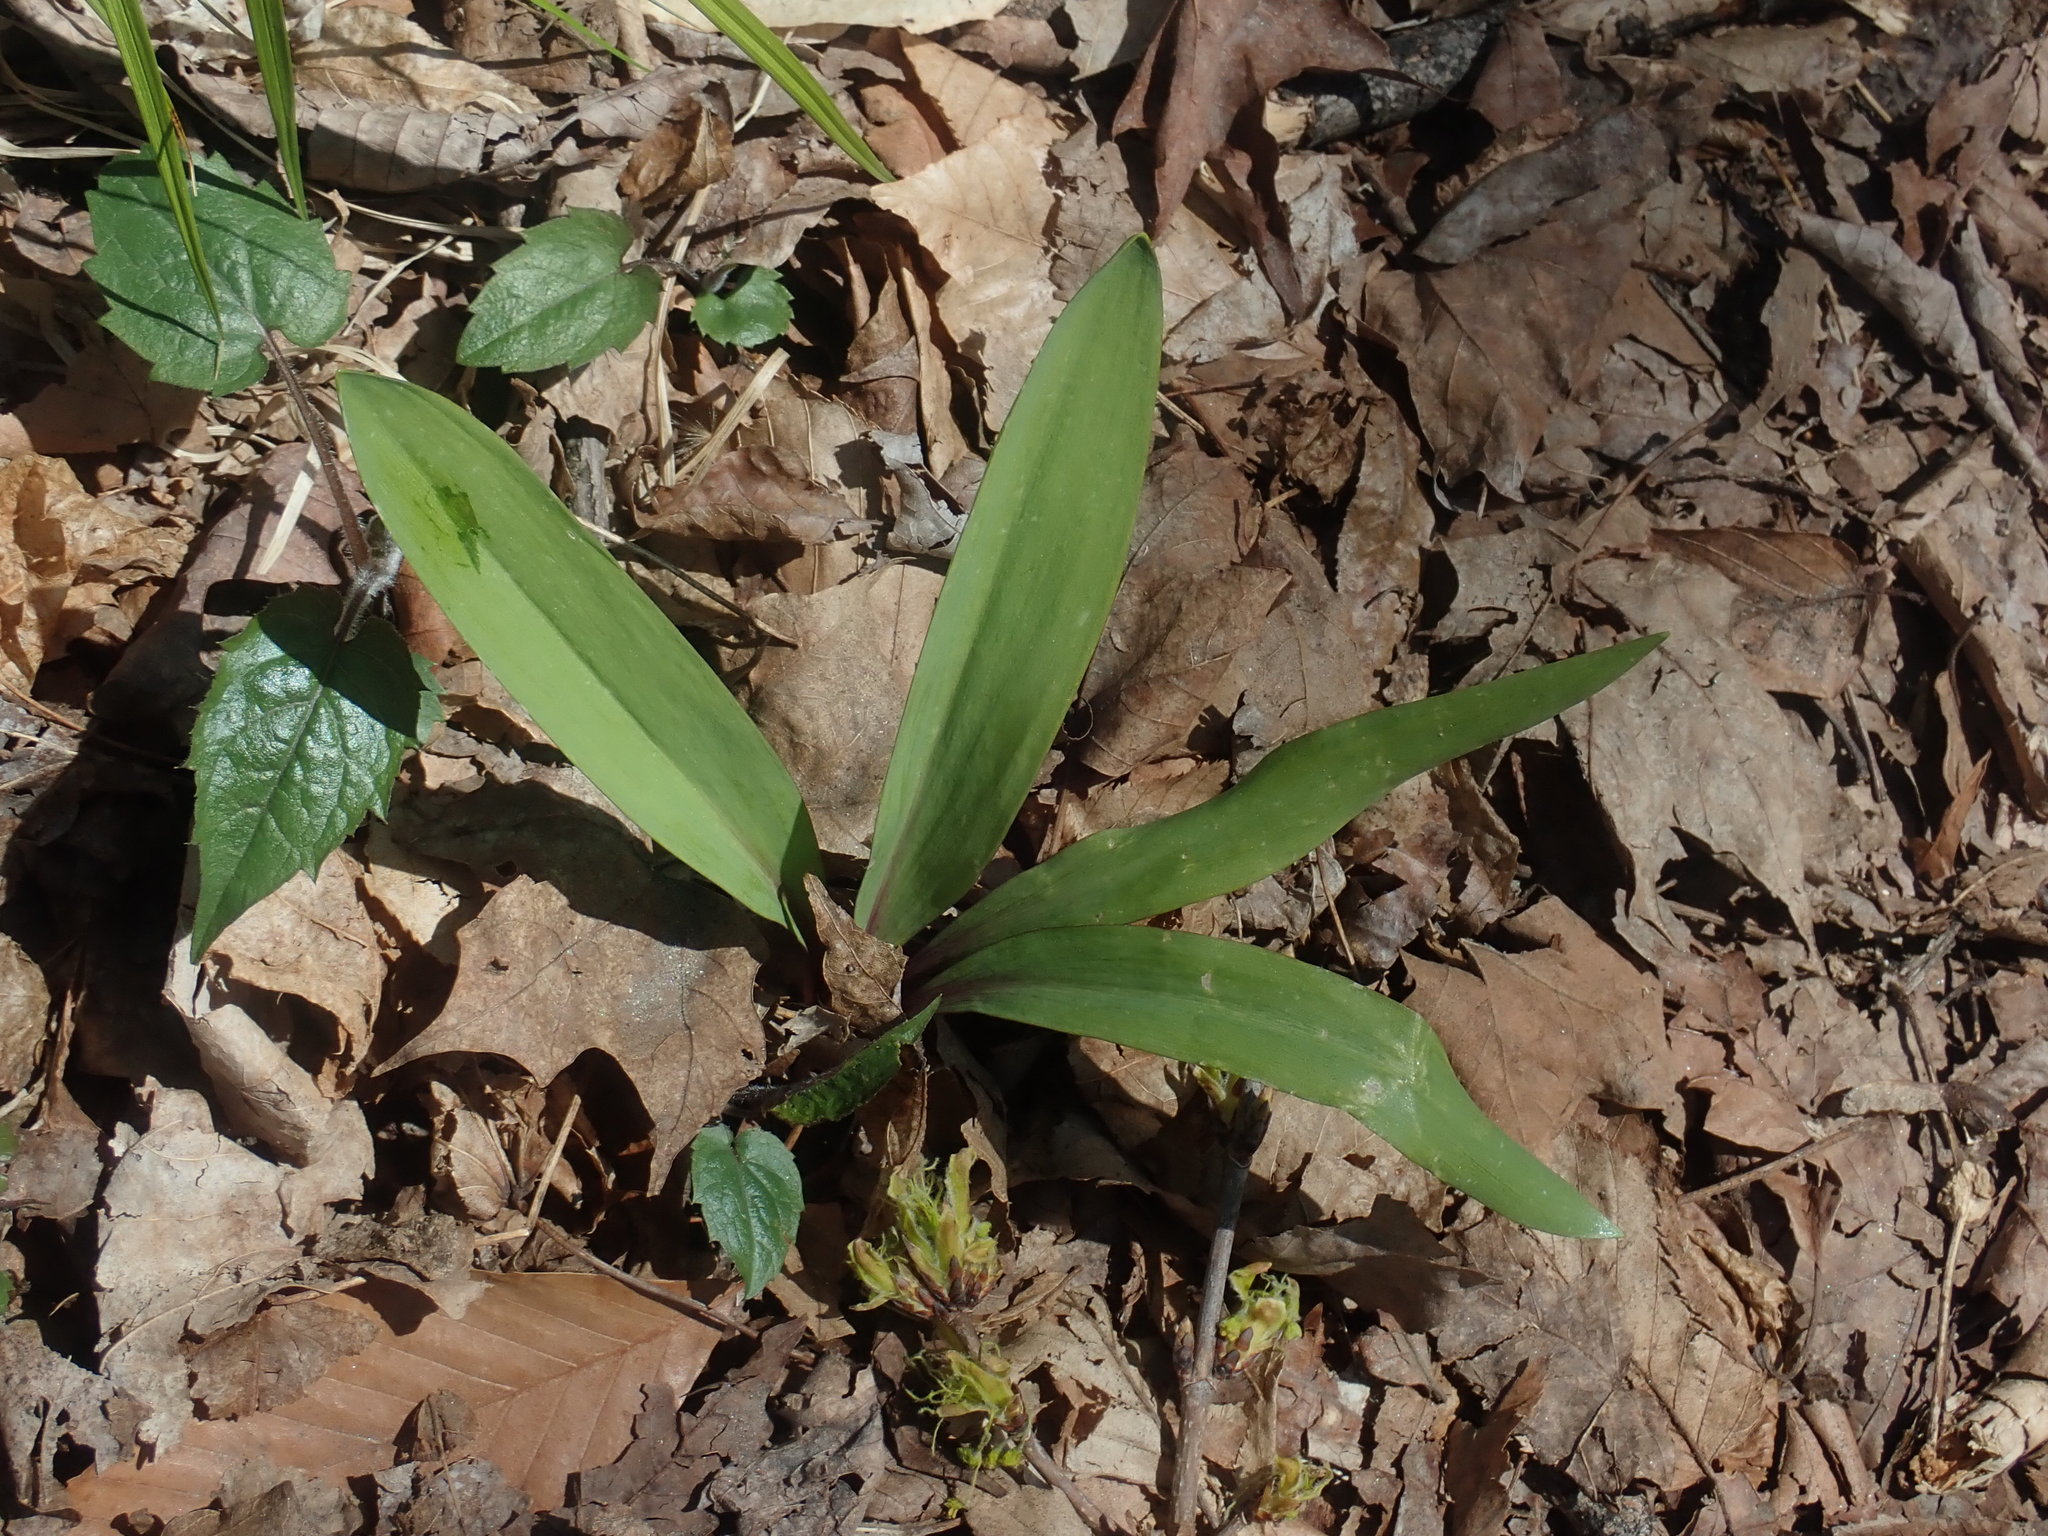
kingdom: Plantae
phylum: Tracheophyta
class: Liliopsida
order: Asparagales
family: Amaryllidaceae
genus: Allium
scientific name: Allium tricoccum
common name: Ramp
